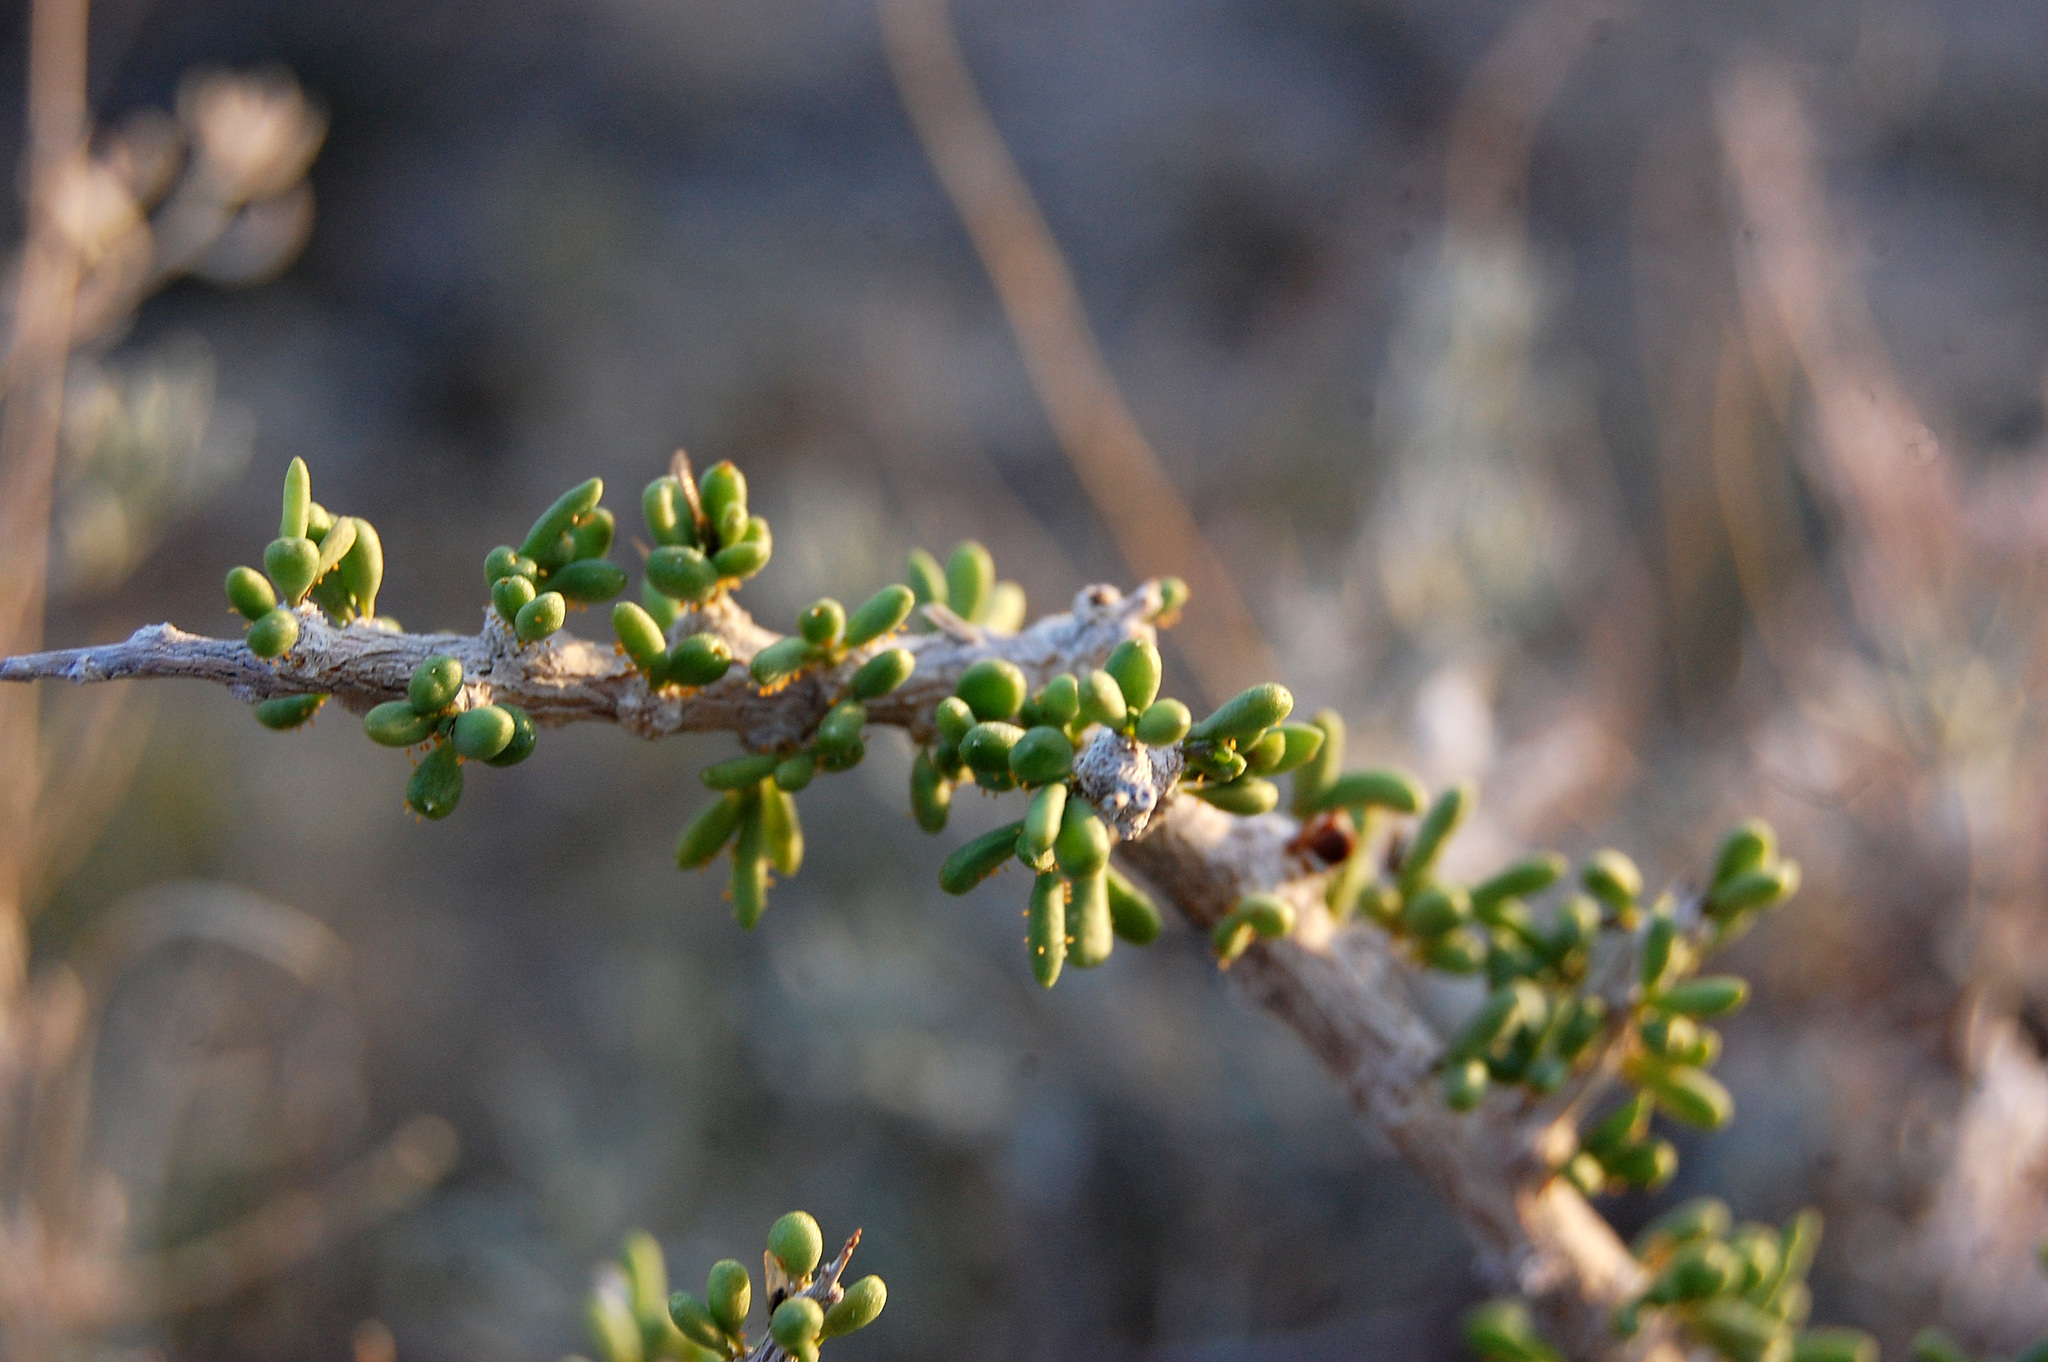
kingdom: Plantae
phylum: Tracheophyta
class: Magnoliopsida
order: Solanales
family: Solanaceae
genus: Lycium
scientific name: Lycium andersonii
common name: Water-jacket
